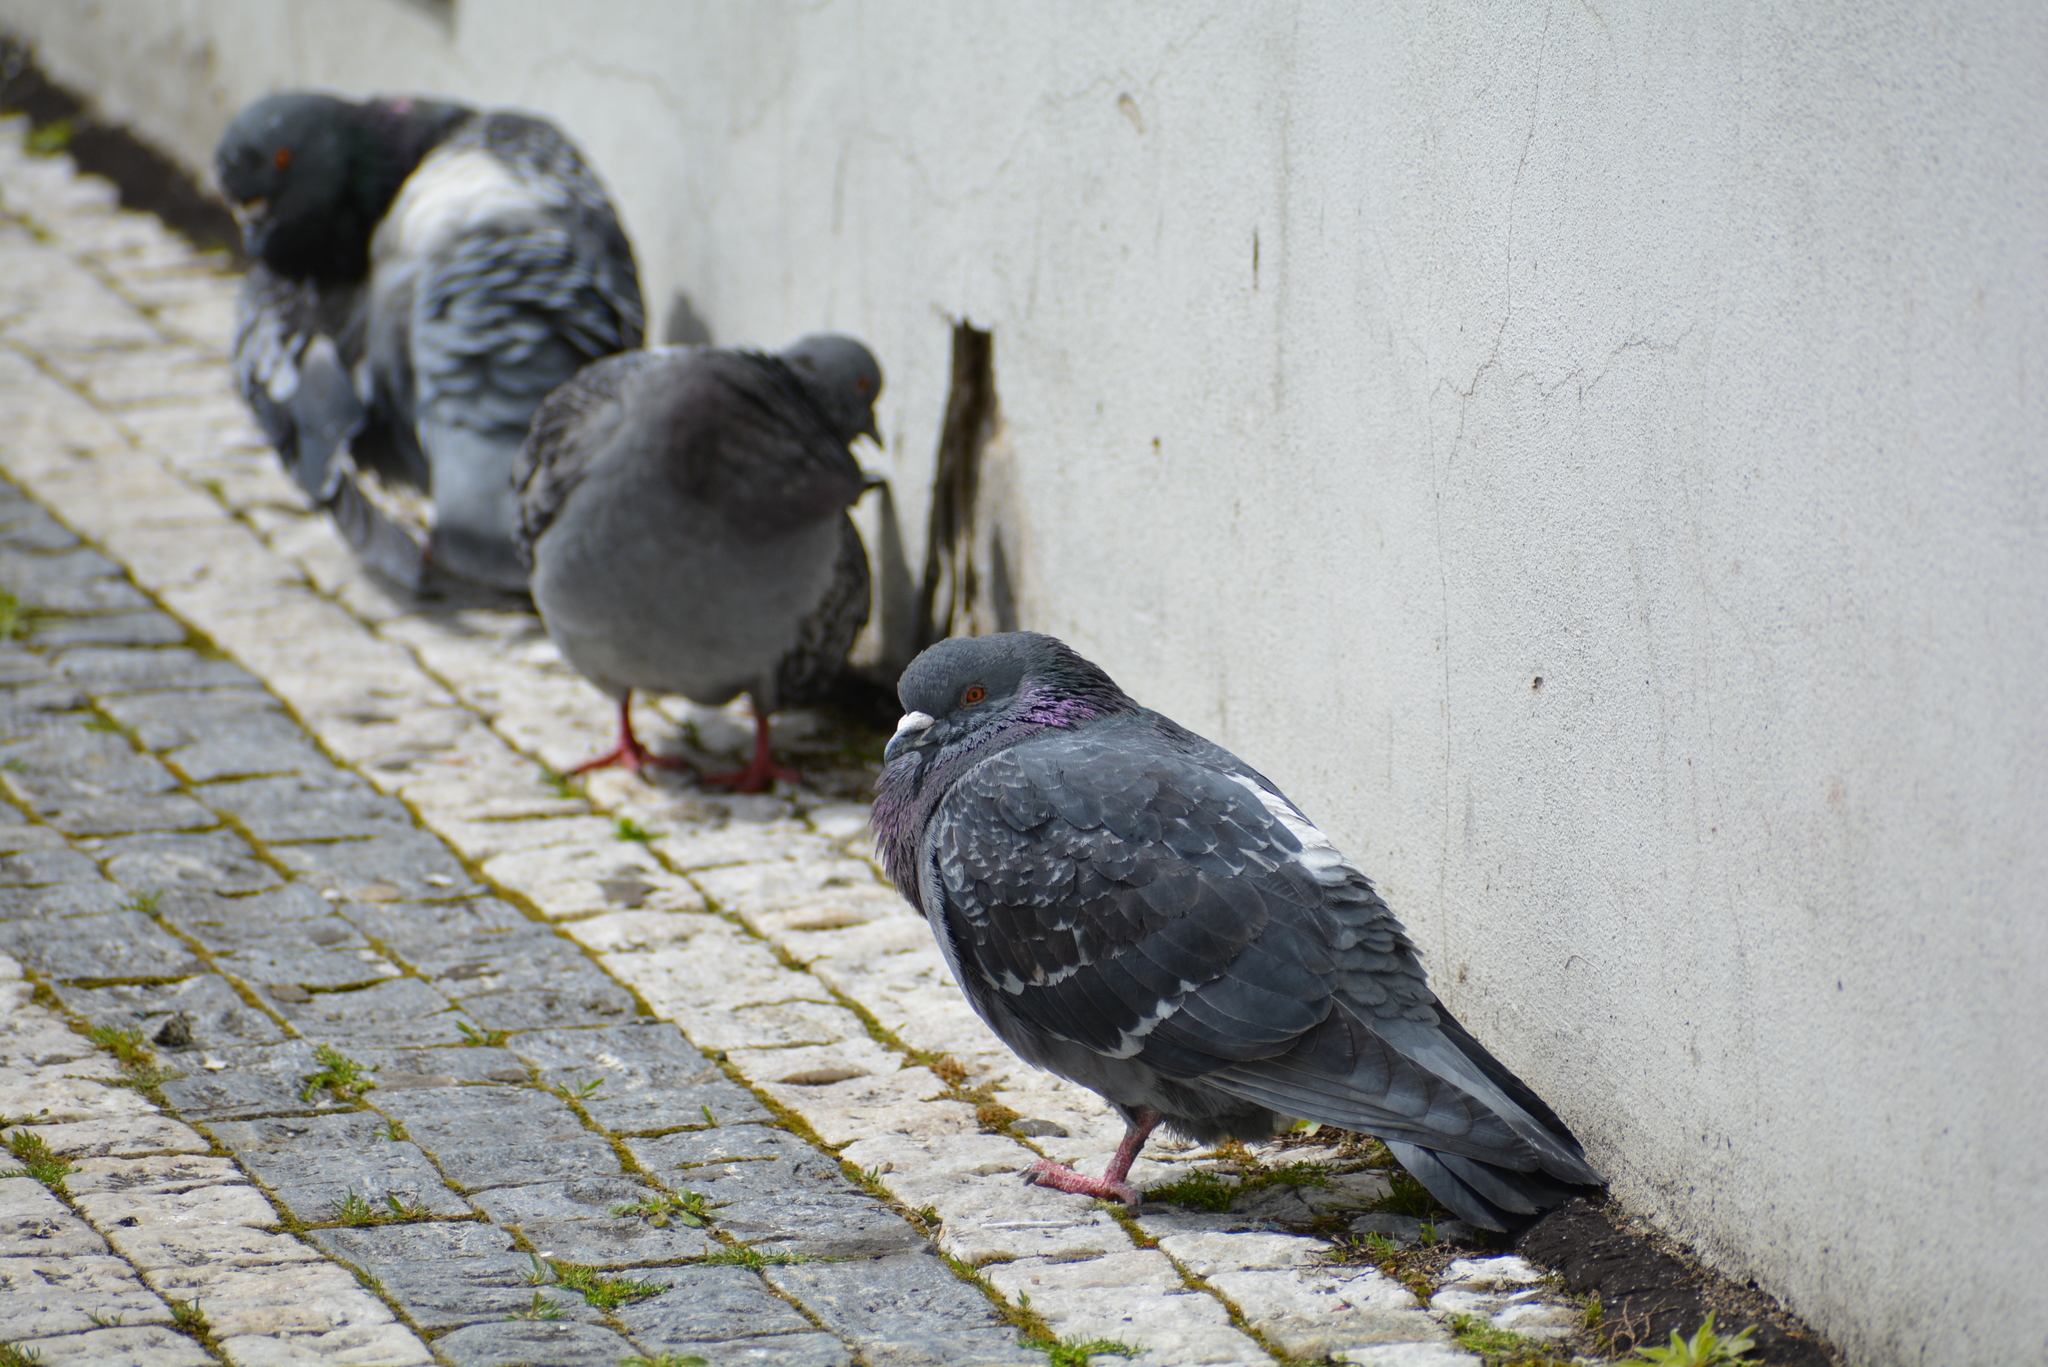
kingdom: Animalia
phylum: Chordata
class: Aves
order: Columbiformes
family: Columbidae
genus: Columba
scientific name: Columba livia
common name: Rock pigeon
